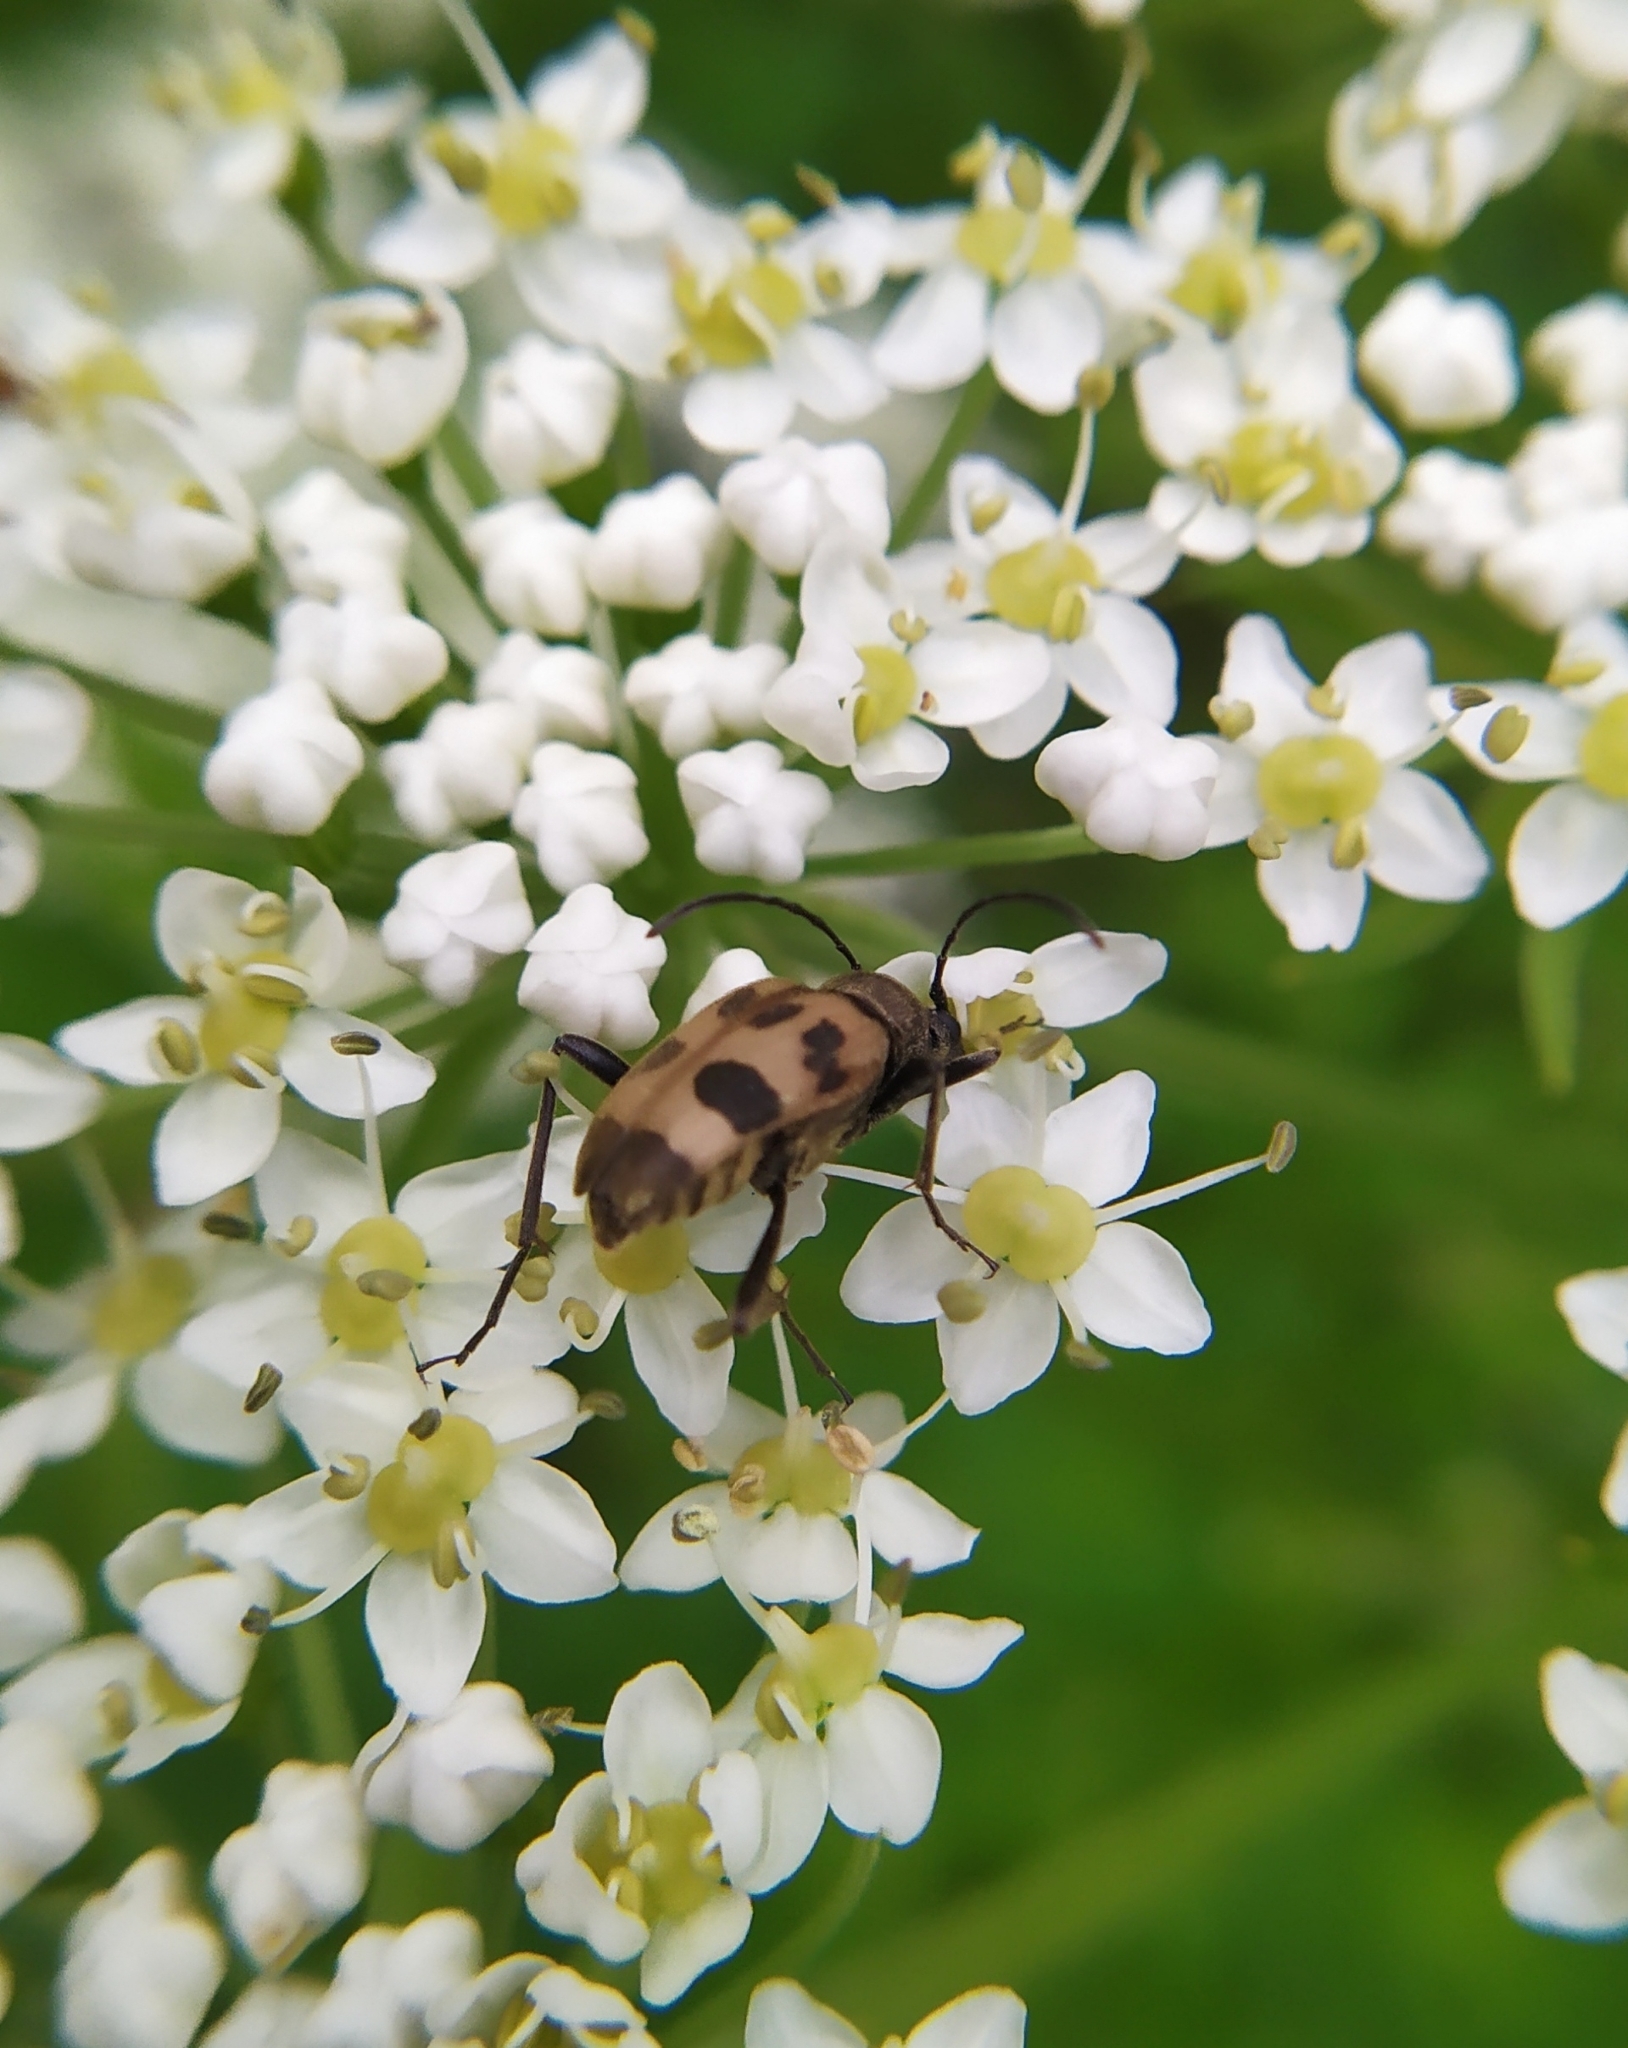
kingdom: Animalia
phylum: Arthropoda
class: Insecta
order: Coleoptera
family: Cerambycidae
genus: Pachytodes
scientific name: Pachytodes cerambyciformis
